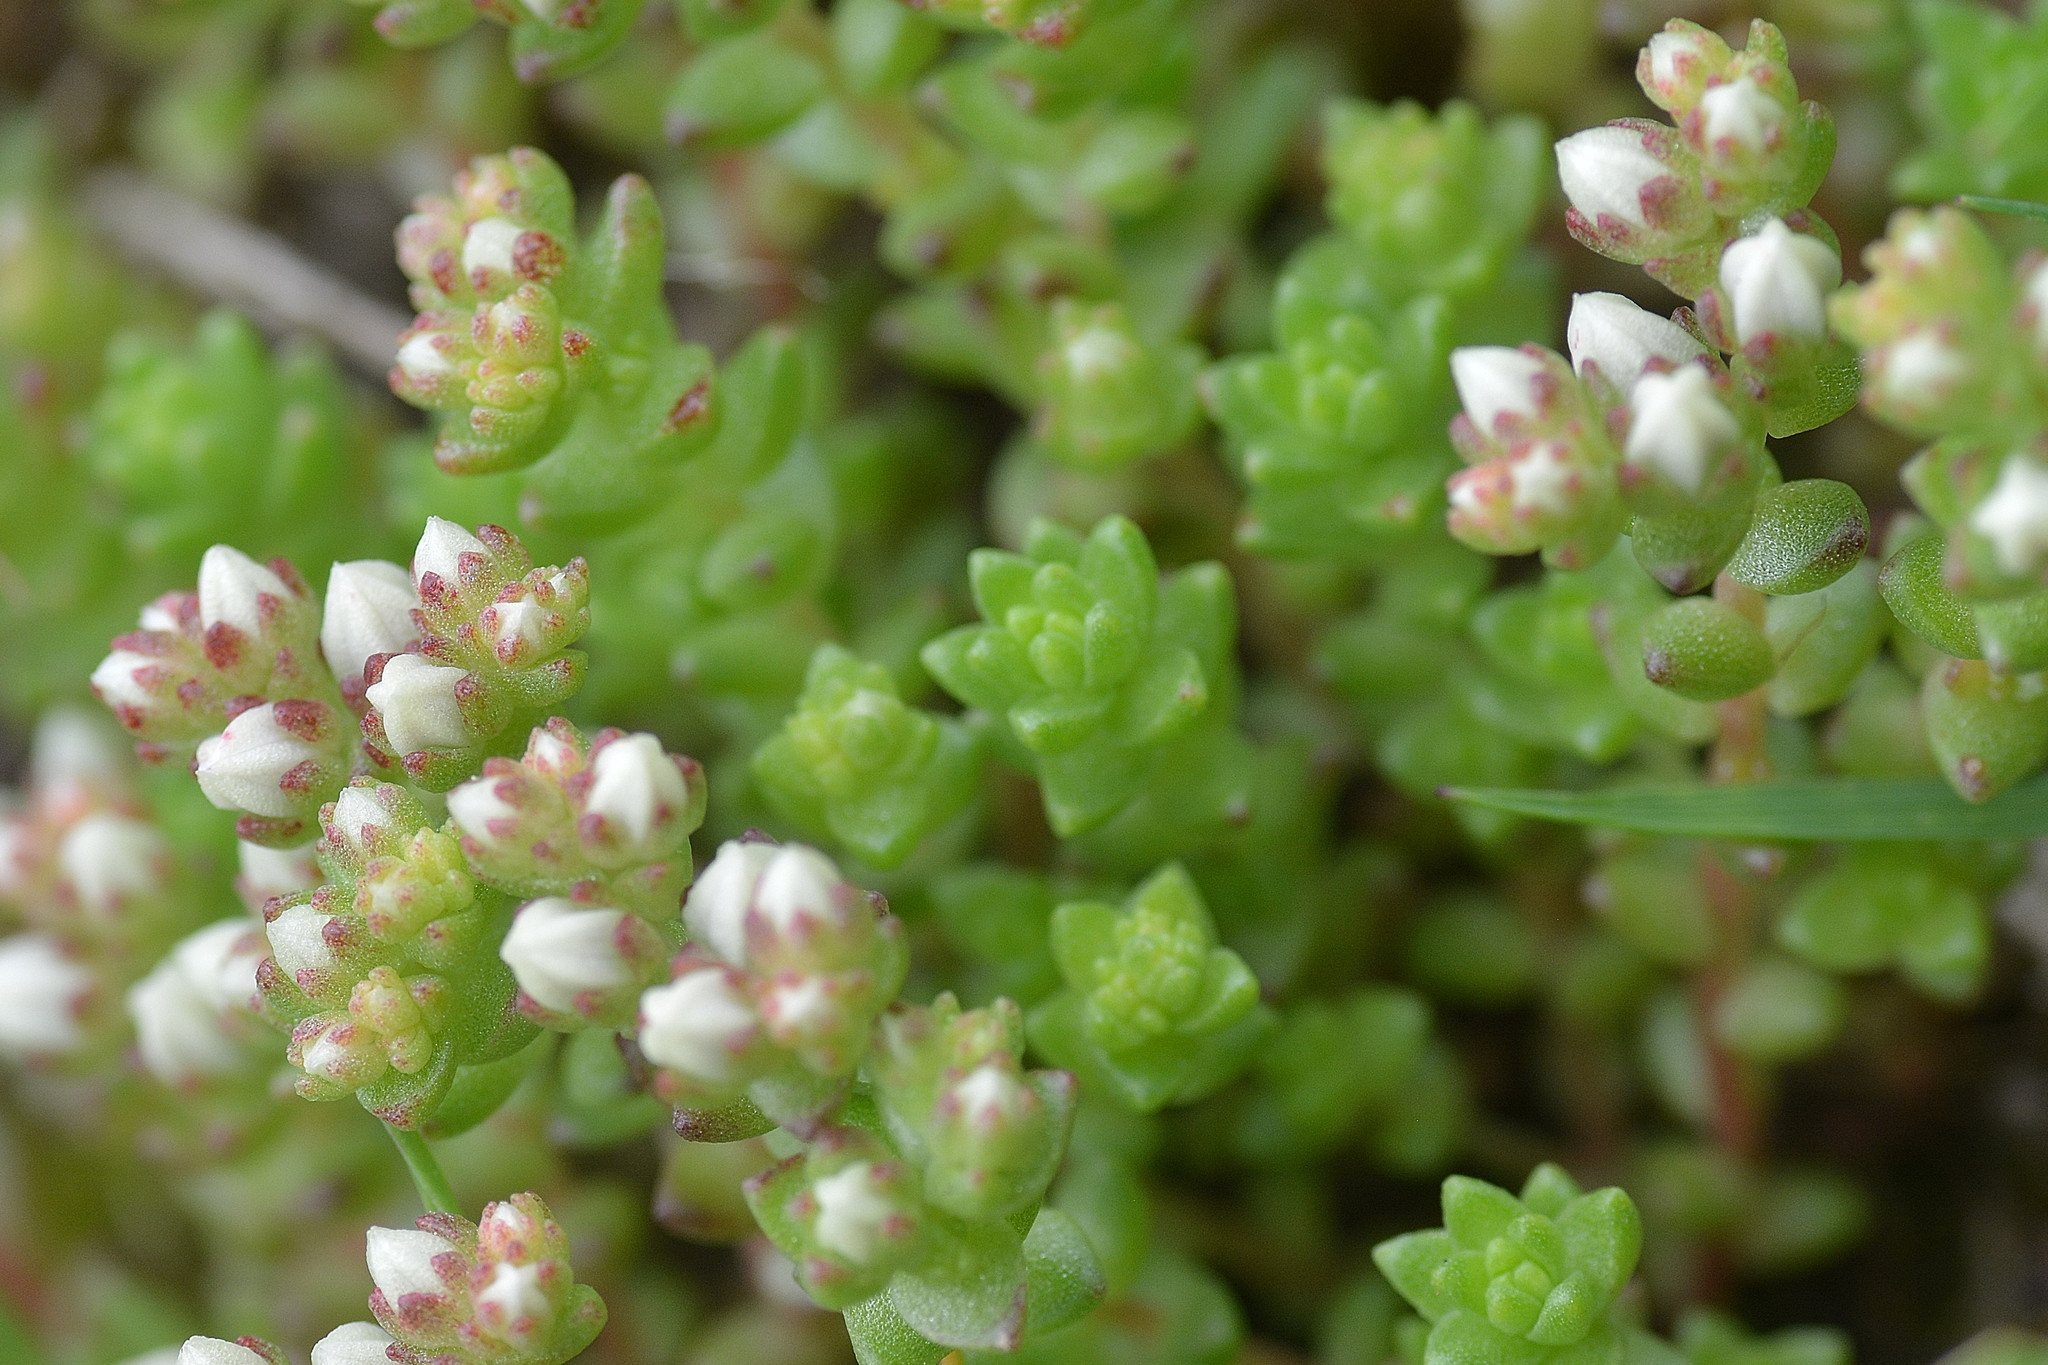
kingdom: Plantae
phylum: Tracheophyta
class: Magnoliopsida
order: Saxifragales
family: Crassulaceae
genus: Sedum
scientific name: Sedum anglicum
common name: English stonecrop
